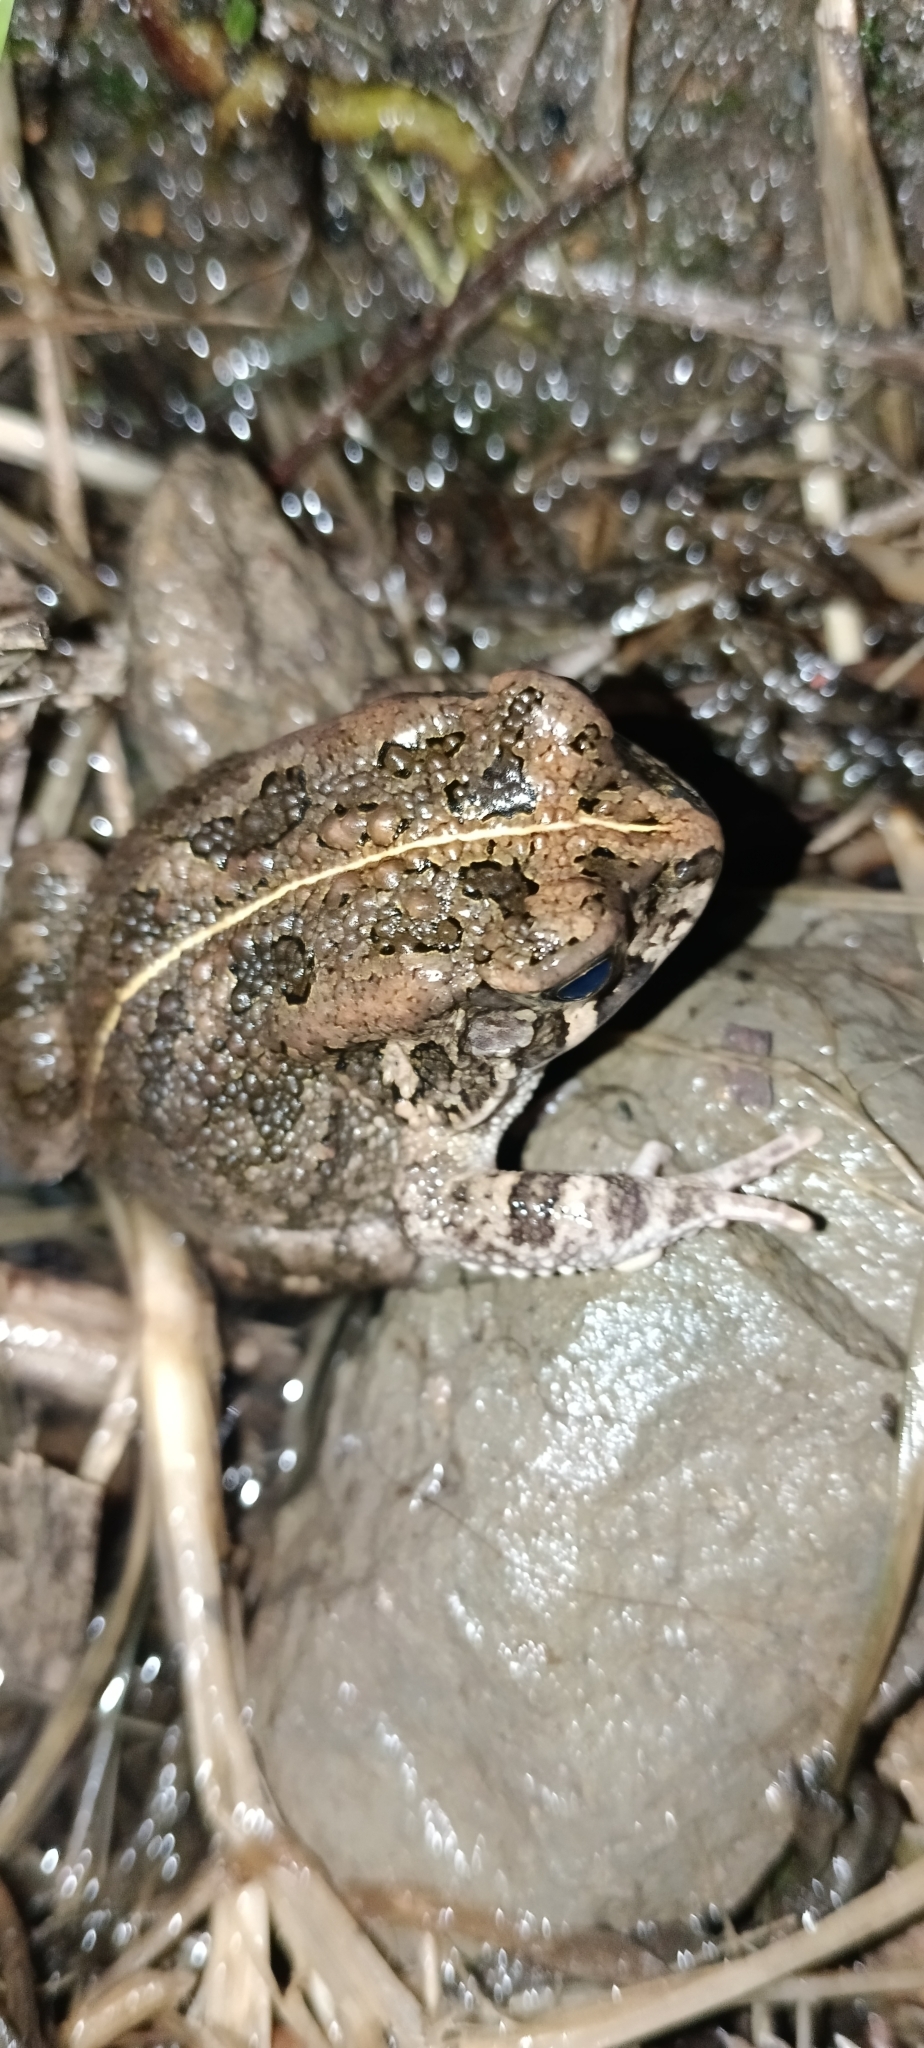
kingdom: Animalia
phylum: Chordata
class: Amphibia
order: Anura
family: Bufonidae
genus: Sclerophrys
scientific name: Sclerophrys gutturalis
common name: African common toad
